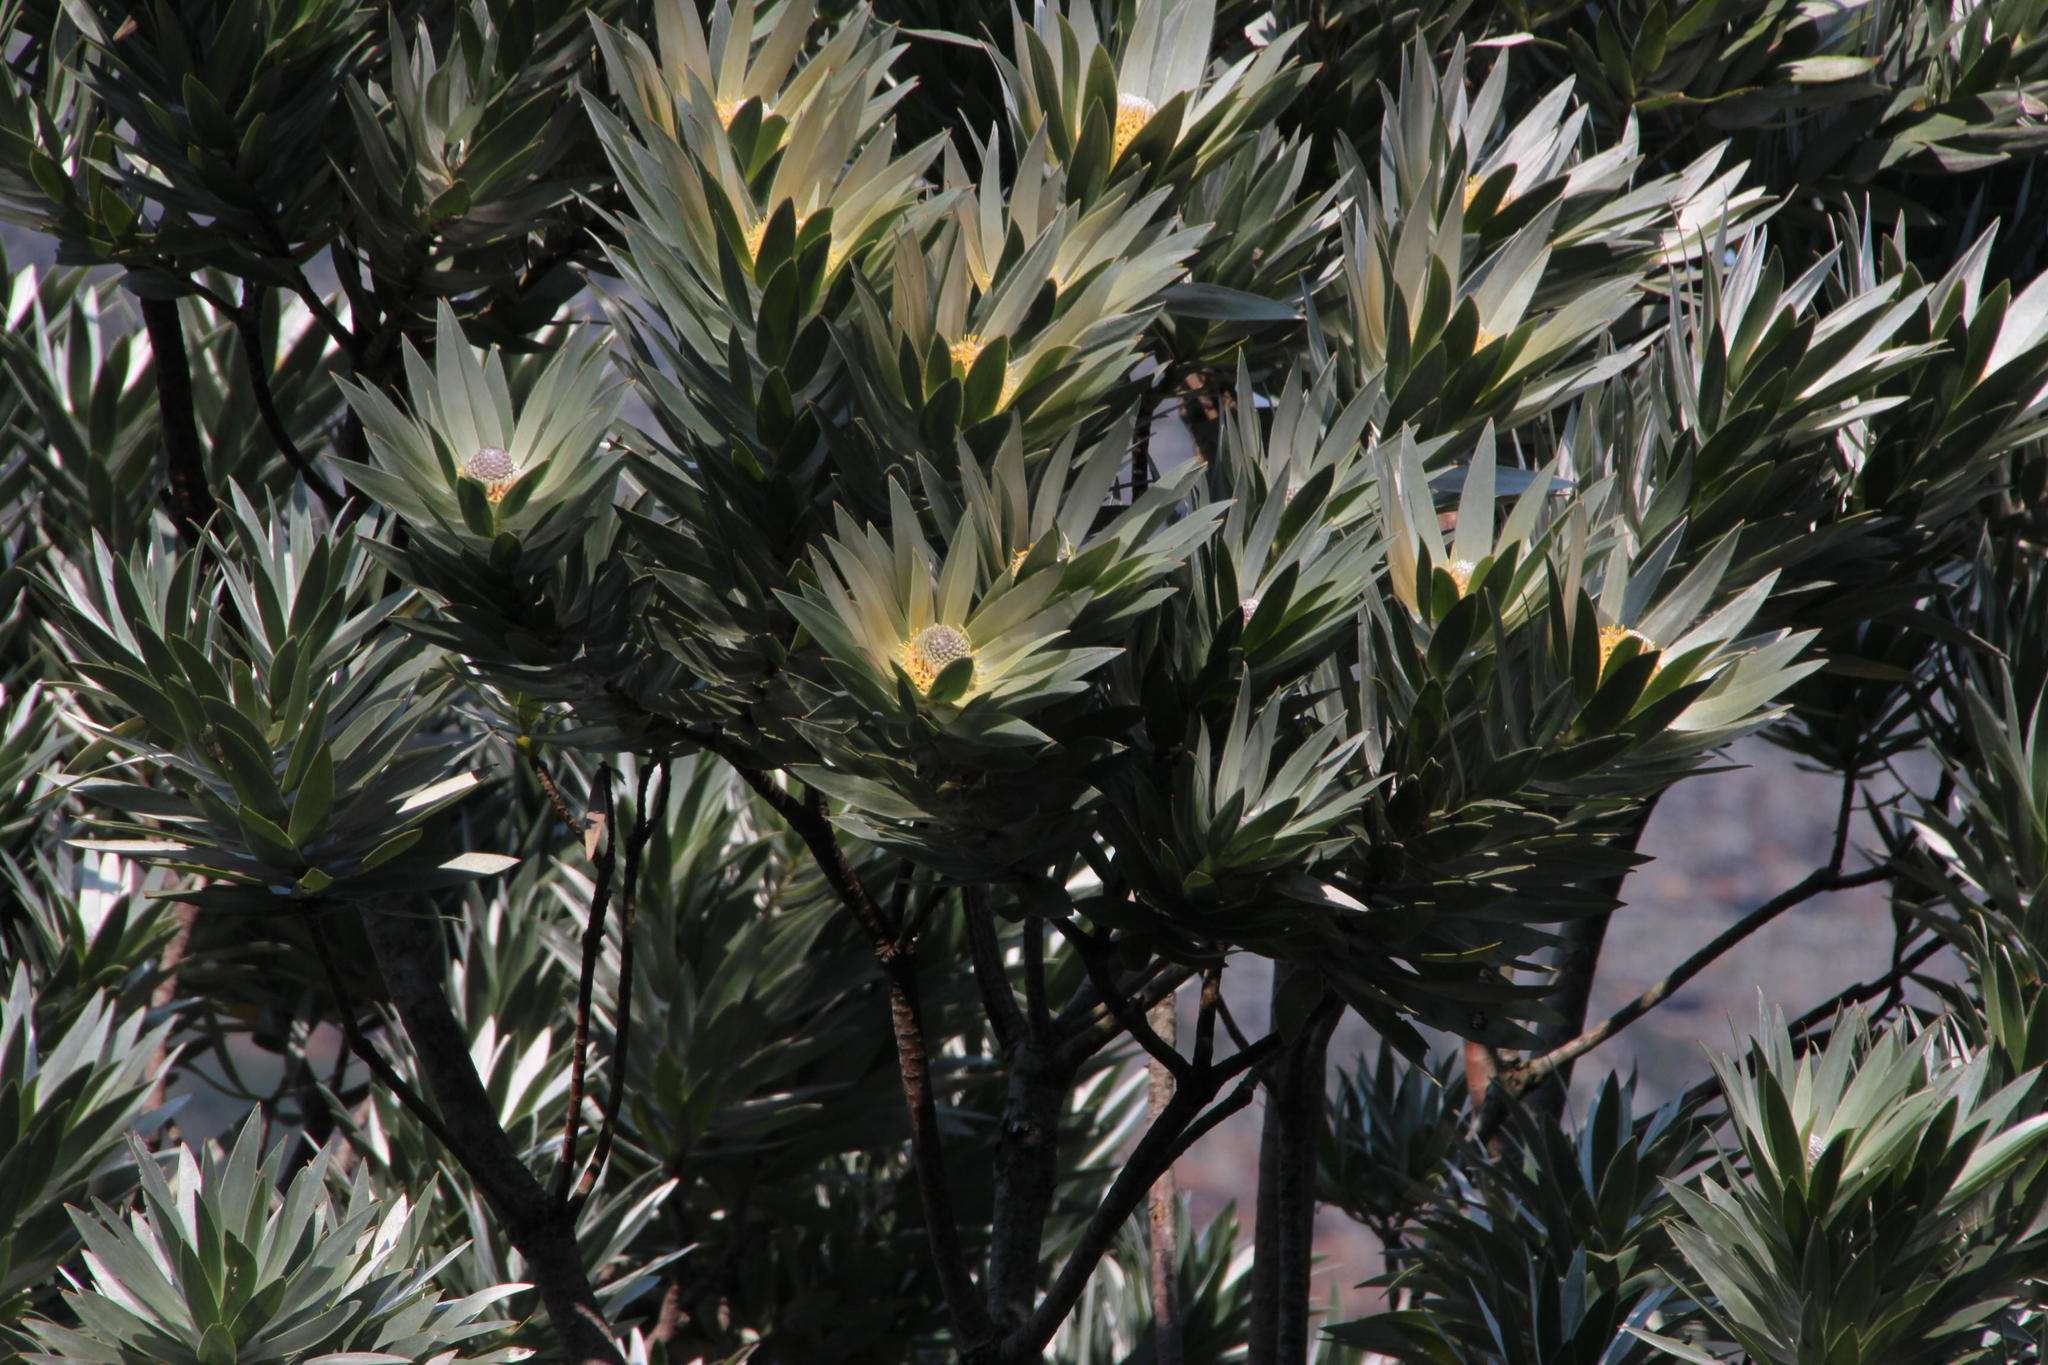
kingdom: Plantae
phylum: Tracheophyta
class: Magnoliopsida
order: Proteales
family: Proteaceae
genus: Leucadendron
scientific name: Leucadendron argenteum
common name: Cape silver tree
